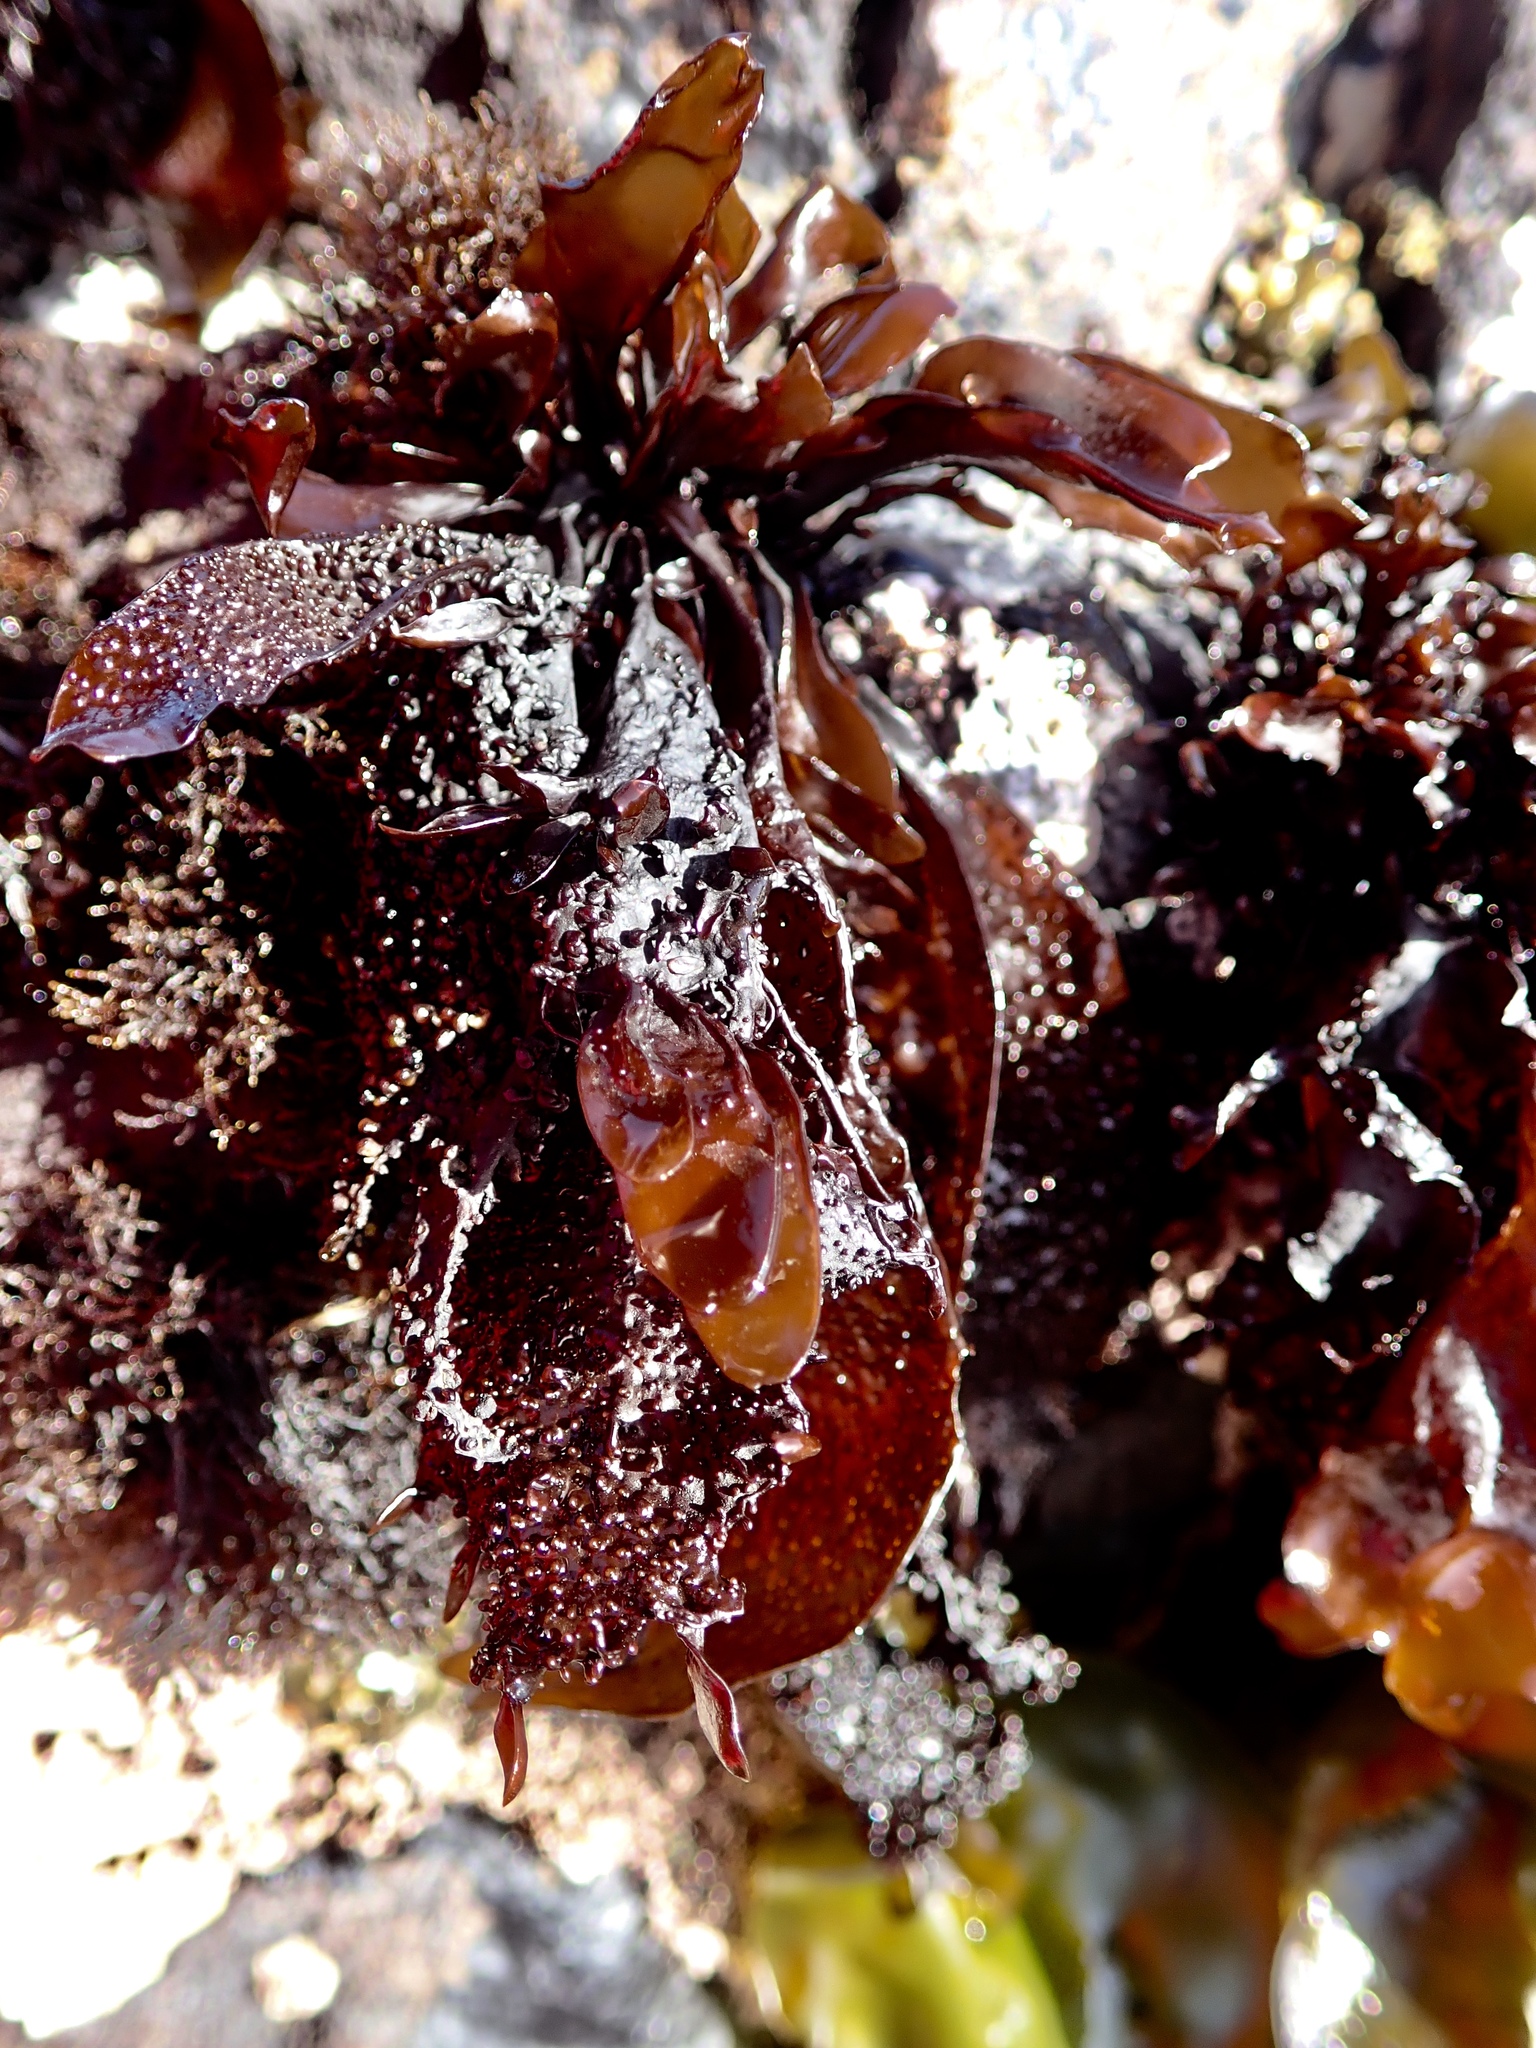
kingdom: Plantae
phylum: Rhodophyta
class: Florideophyceae
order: Gigartinales
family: Phyllophoraceae
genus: Mastocarpus
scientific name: Mastocarpus papillatus
